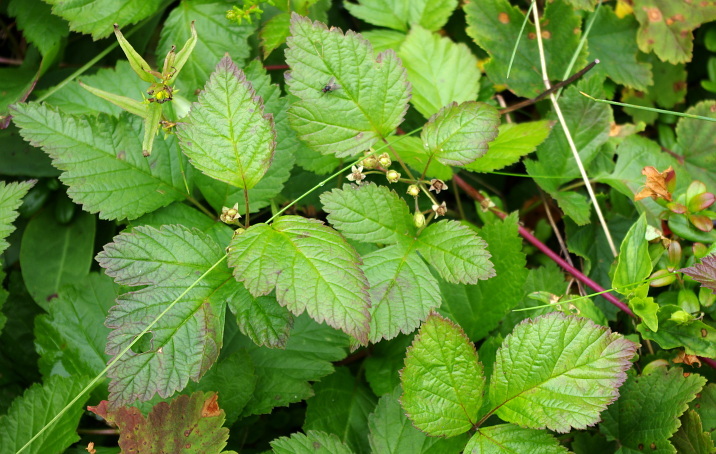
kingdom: Plantae
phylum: Tracheophyta
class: Magnoliopsida
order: Rosales
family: Rosaceae
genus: Rubus
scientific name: Rubus saxatilis
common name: Stone bramble
